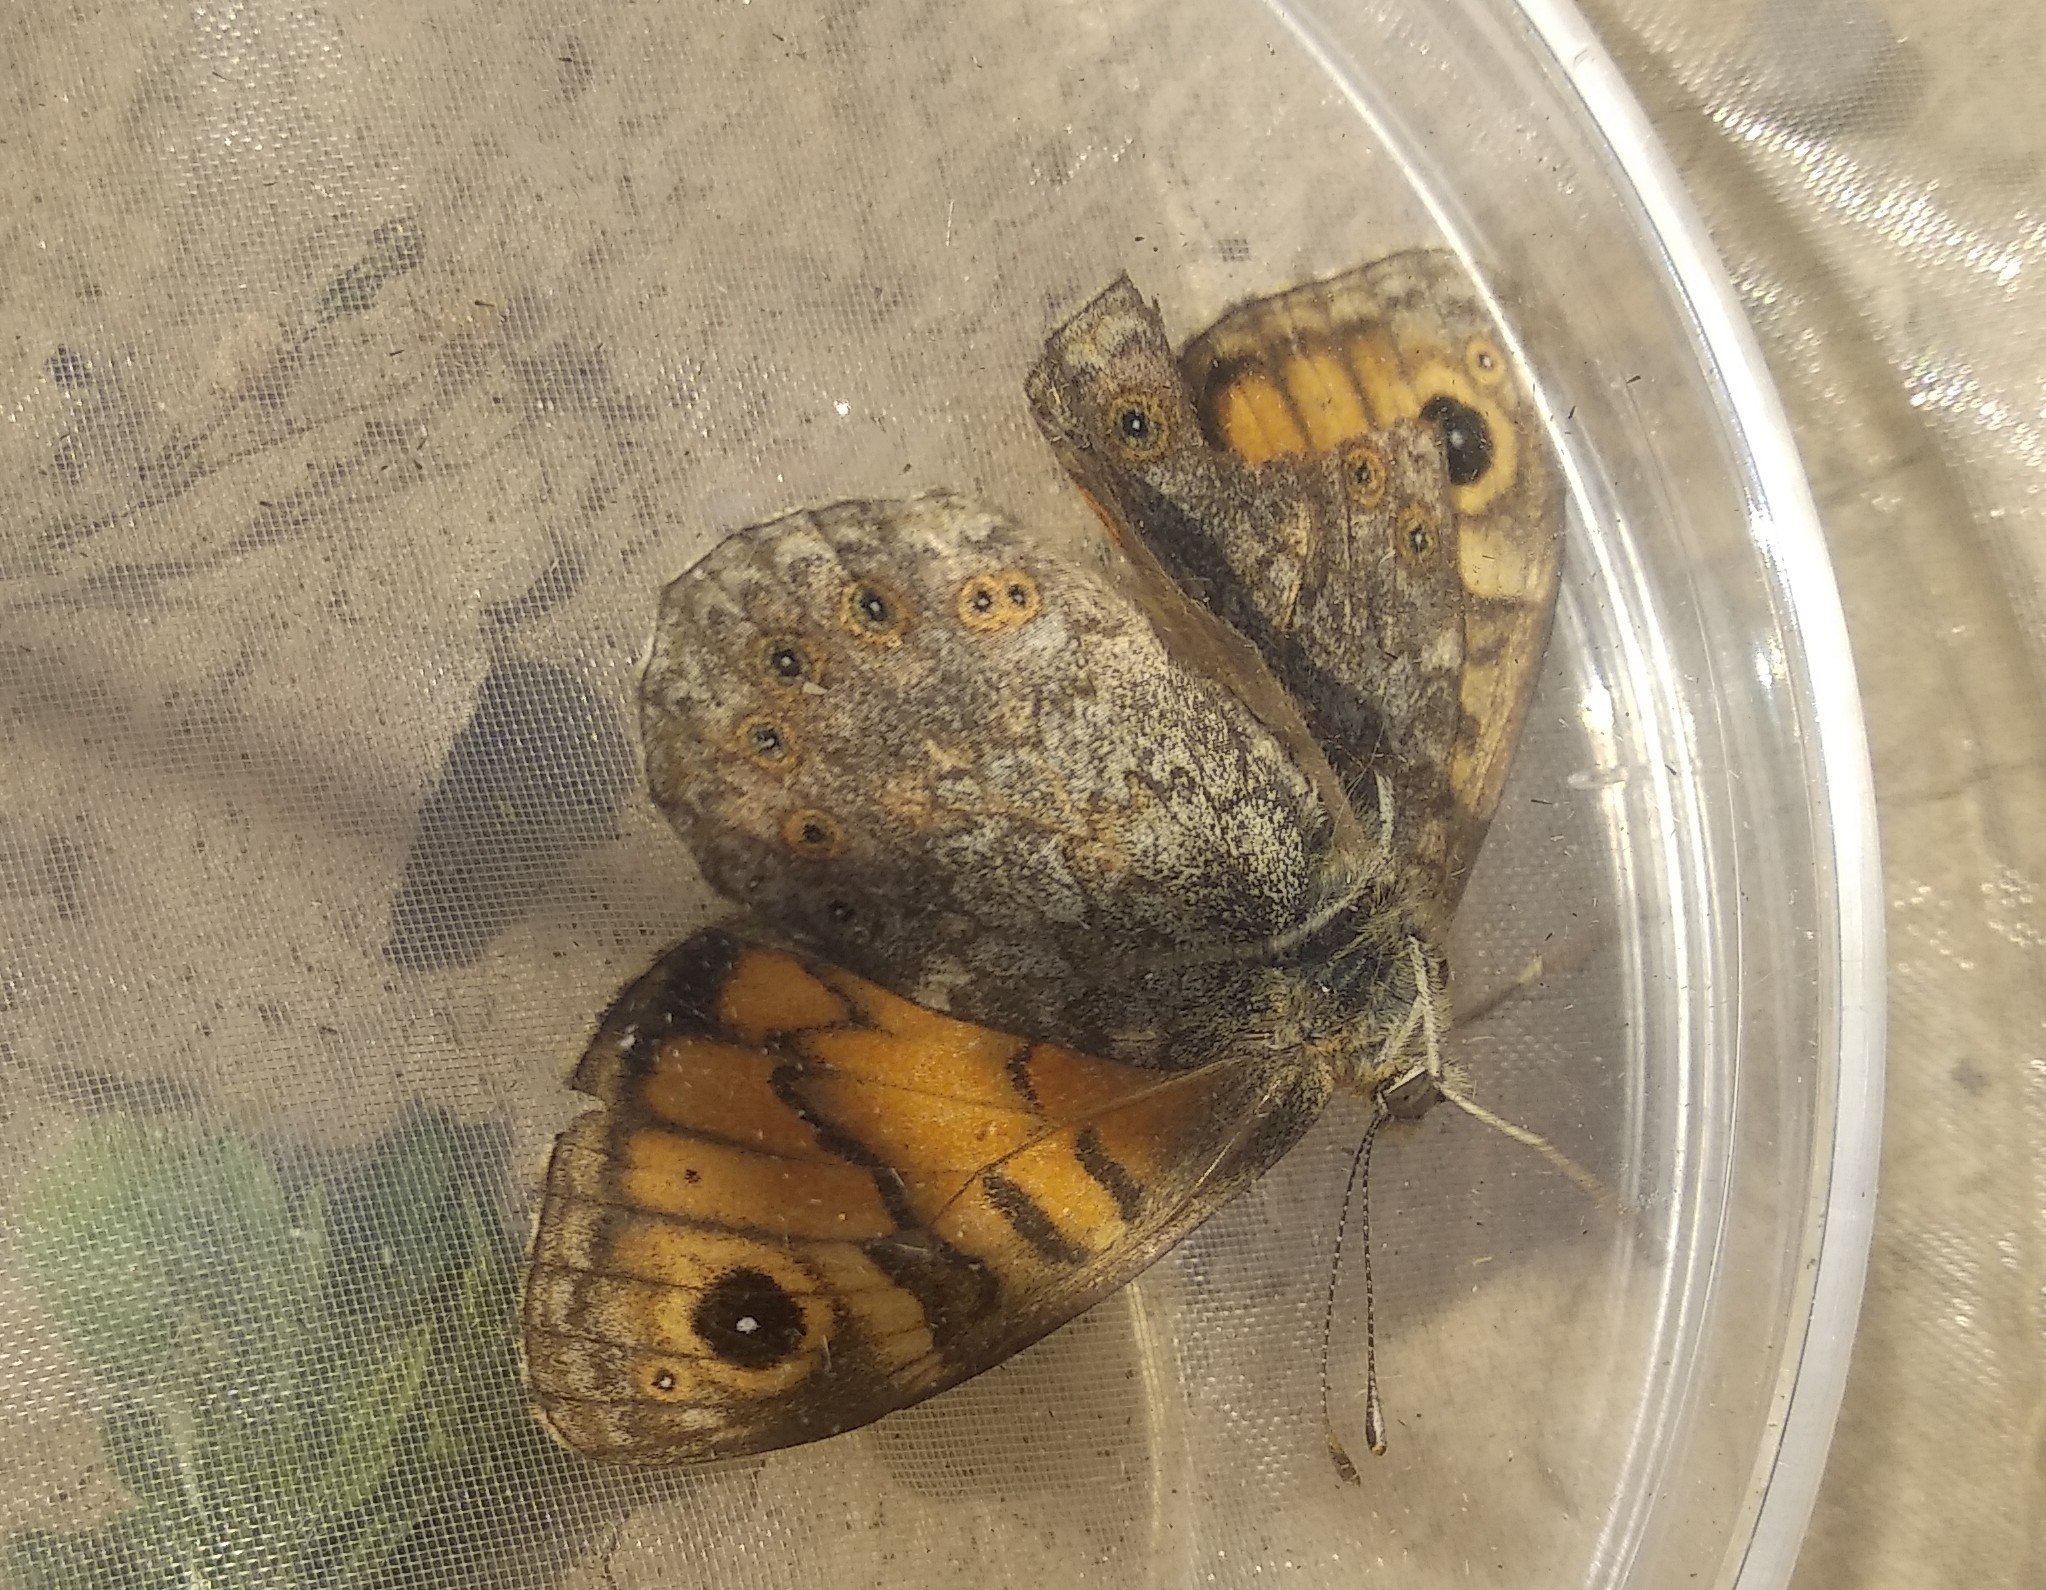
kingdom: Animalia
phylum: Arthropoda
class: Insecta
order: Lepidoptera
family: Nymphalidae
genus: Pararge
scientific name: Pararge Lasiommata megera
